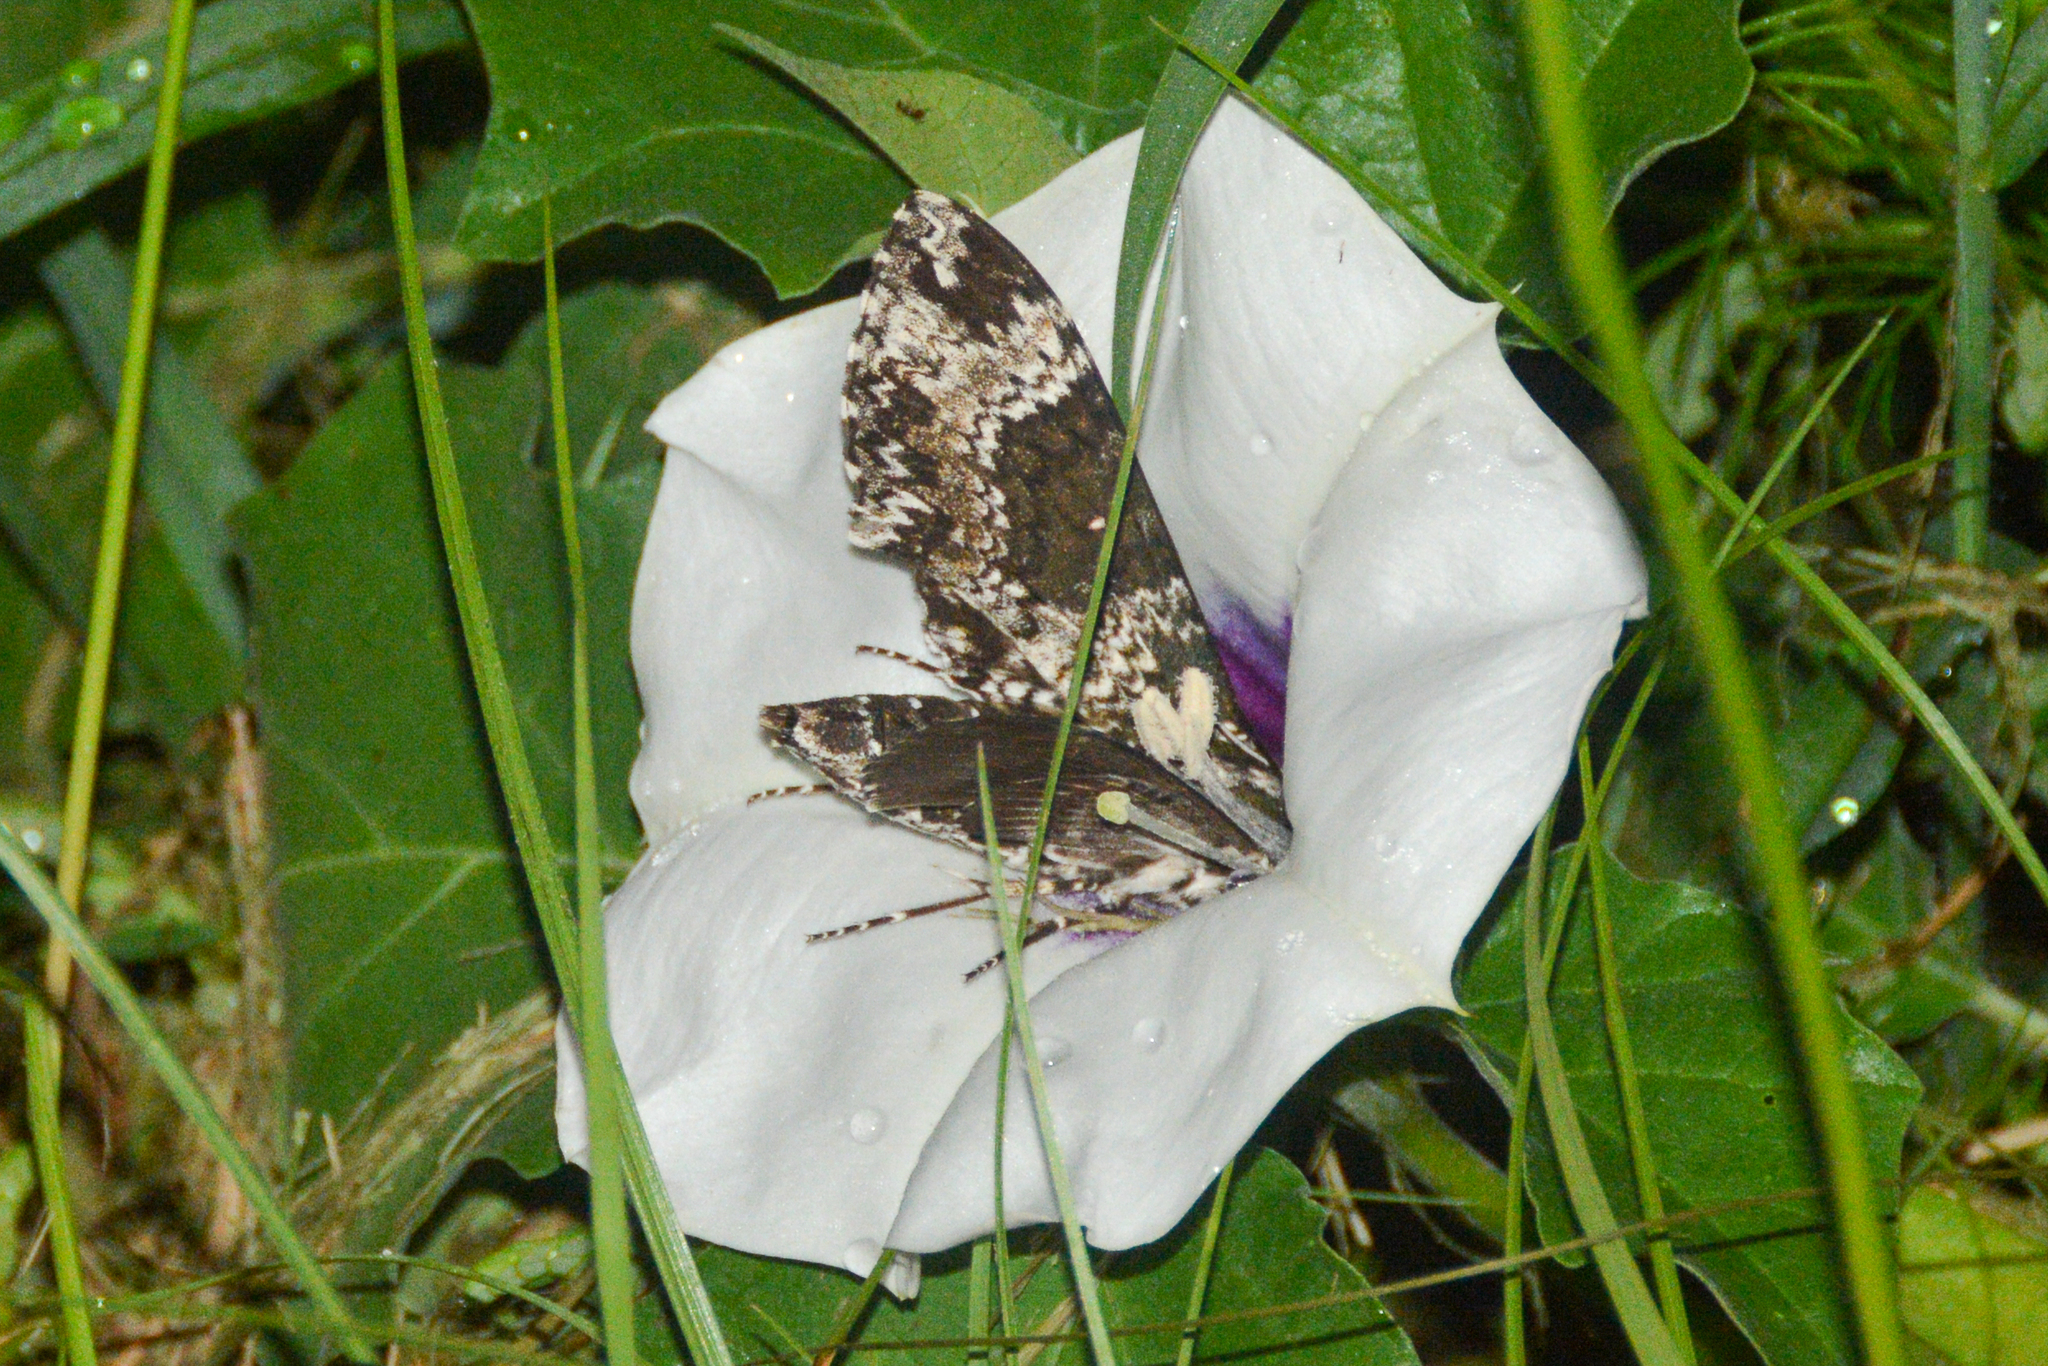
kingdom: Animalia
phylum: Arthropoda
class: Insecta
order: Lepidoptera
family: Sphingidae
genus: Manduca
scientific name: Manduca rustica
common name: Rustic sphinx
